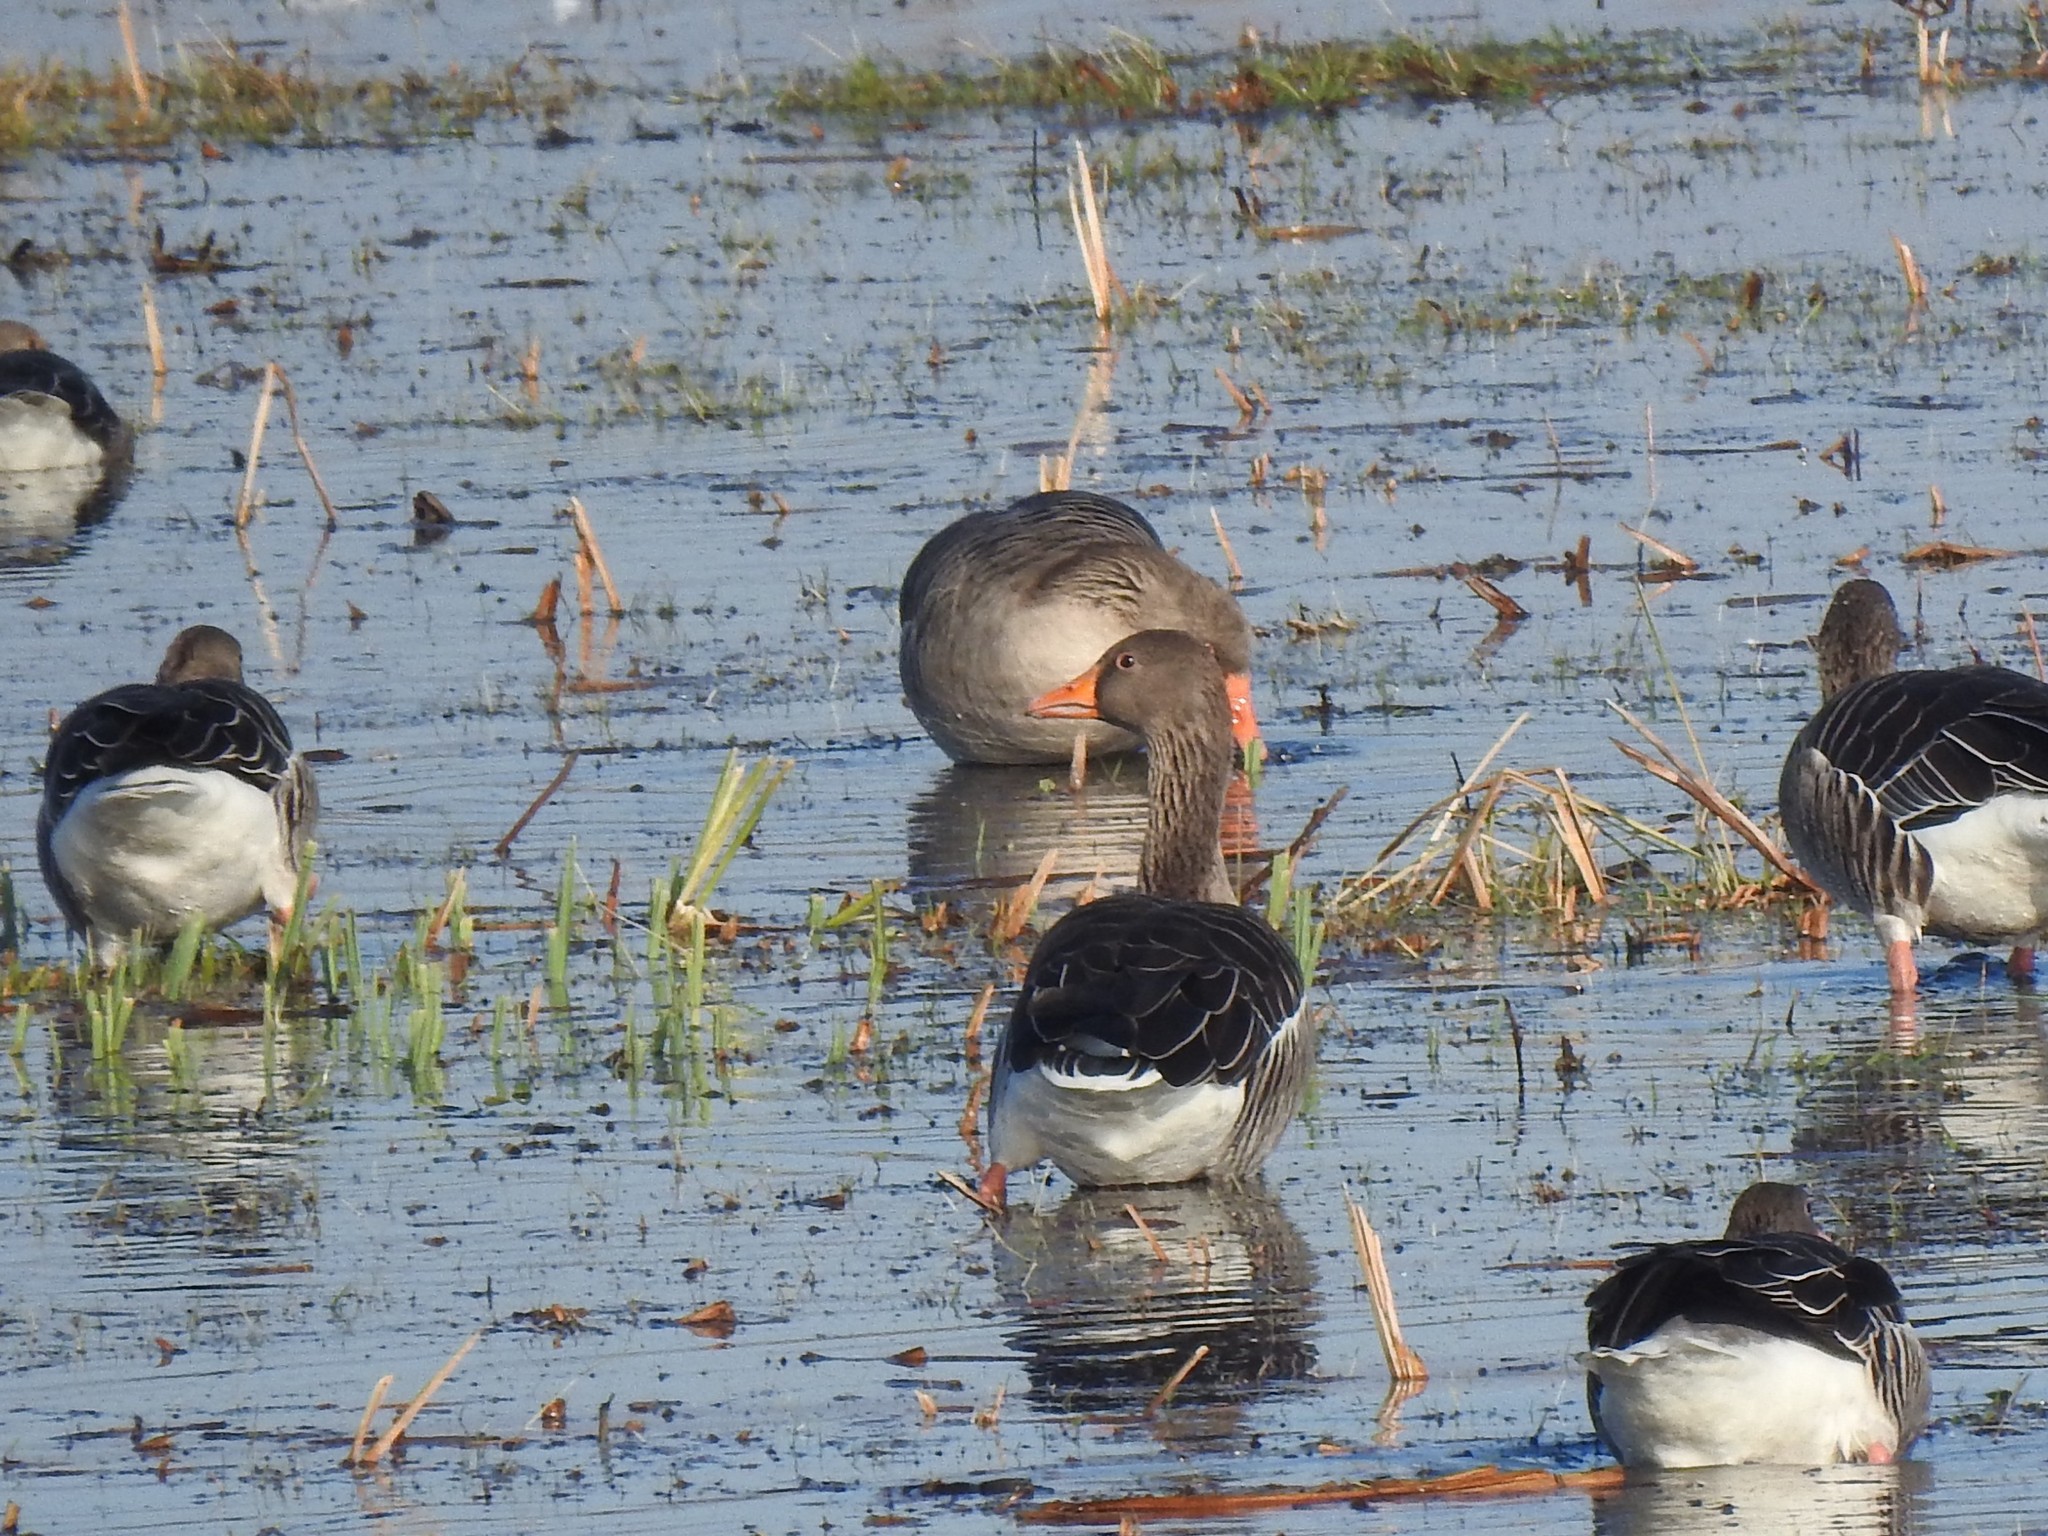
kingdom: Animalia
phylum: Chordata
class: Aves
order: Anseriformes
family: Anatidae
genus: Anser
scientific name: Anser anser
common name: Greylag goose
